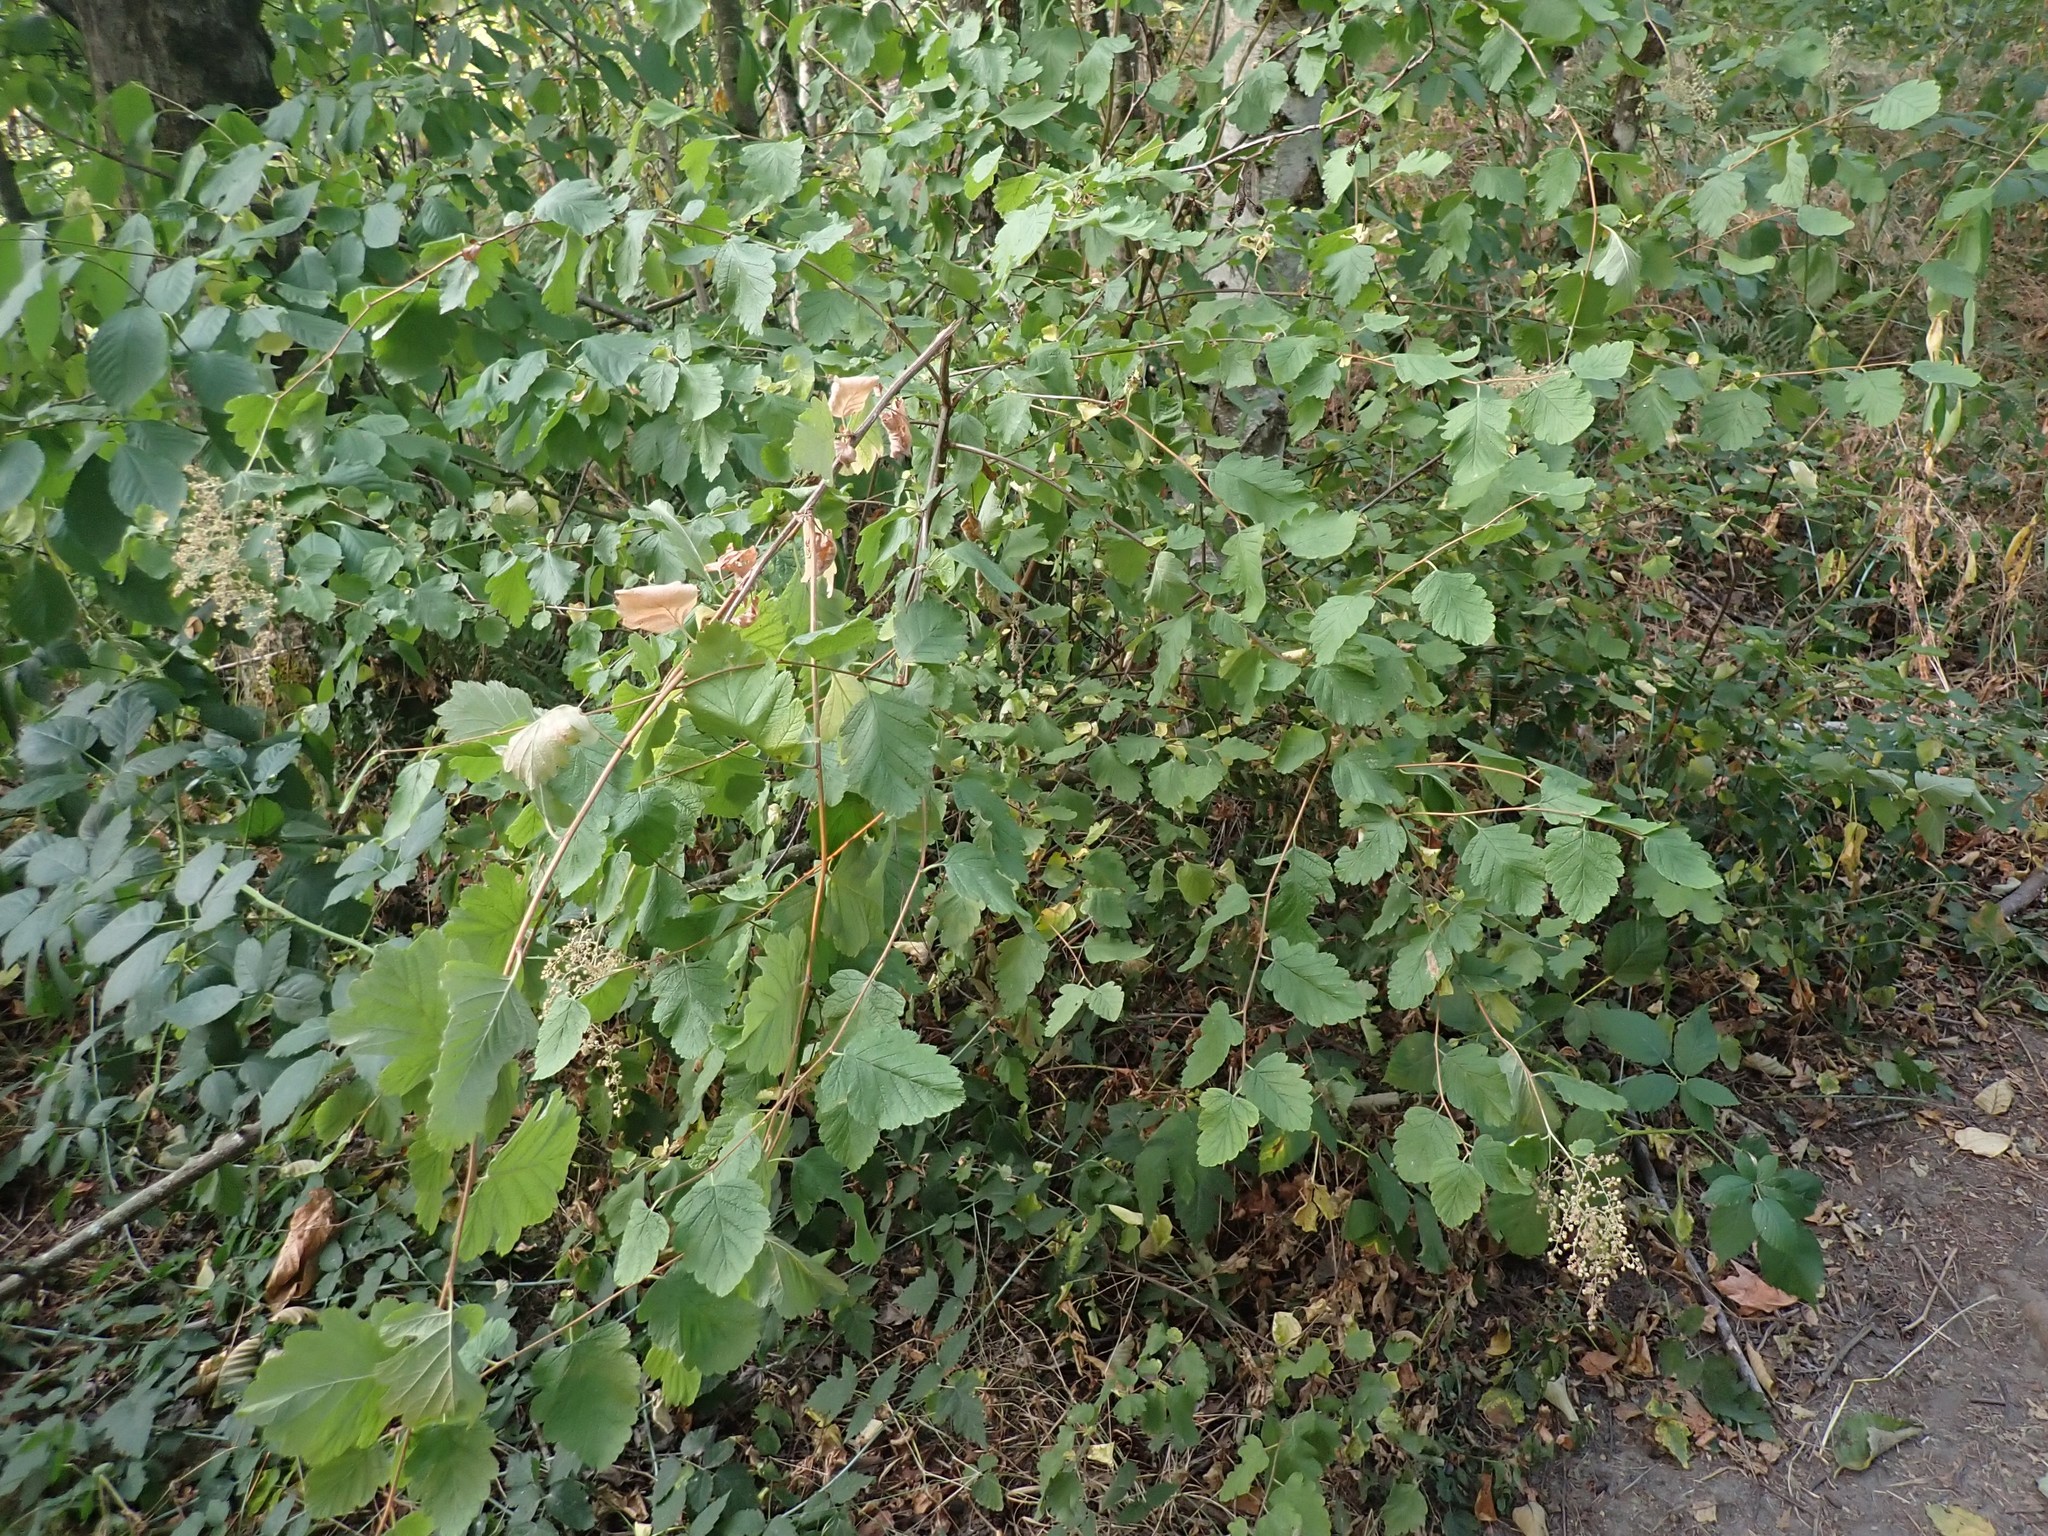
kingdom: Plantae
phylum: Tracheophyta
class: Magnoliopsida
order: Rosales
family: Rosaceae
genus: Holodiscus
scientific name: Holodiscus discolor
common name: Oceanspray
